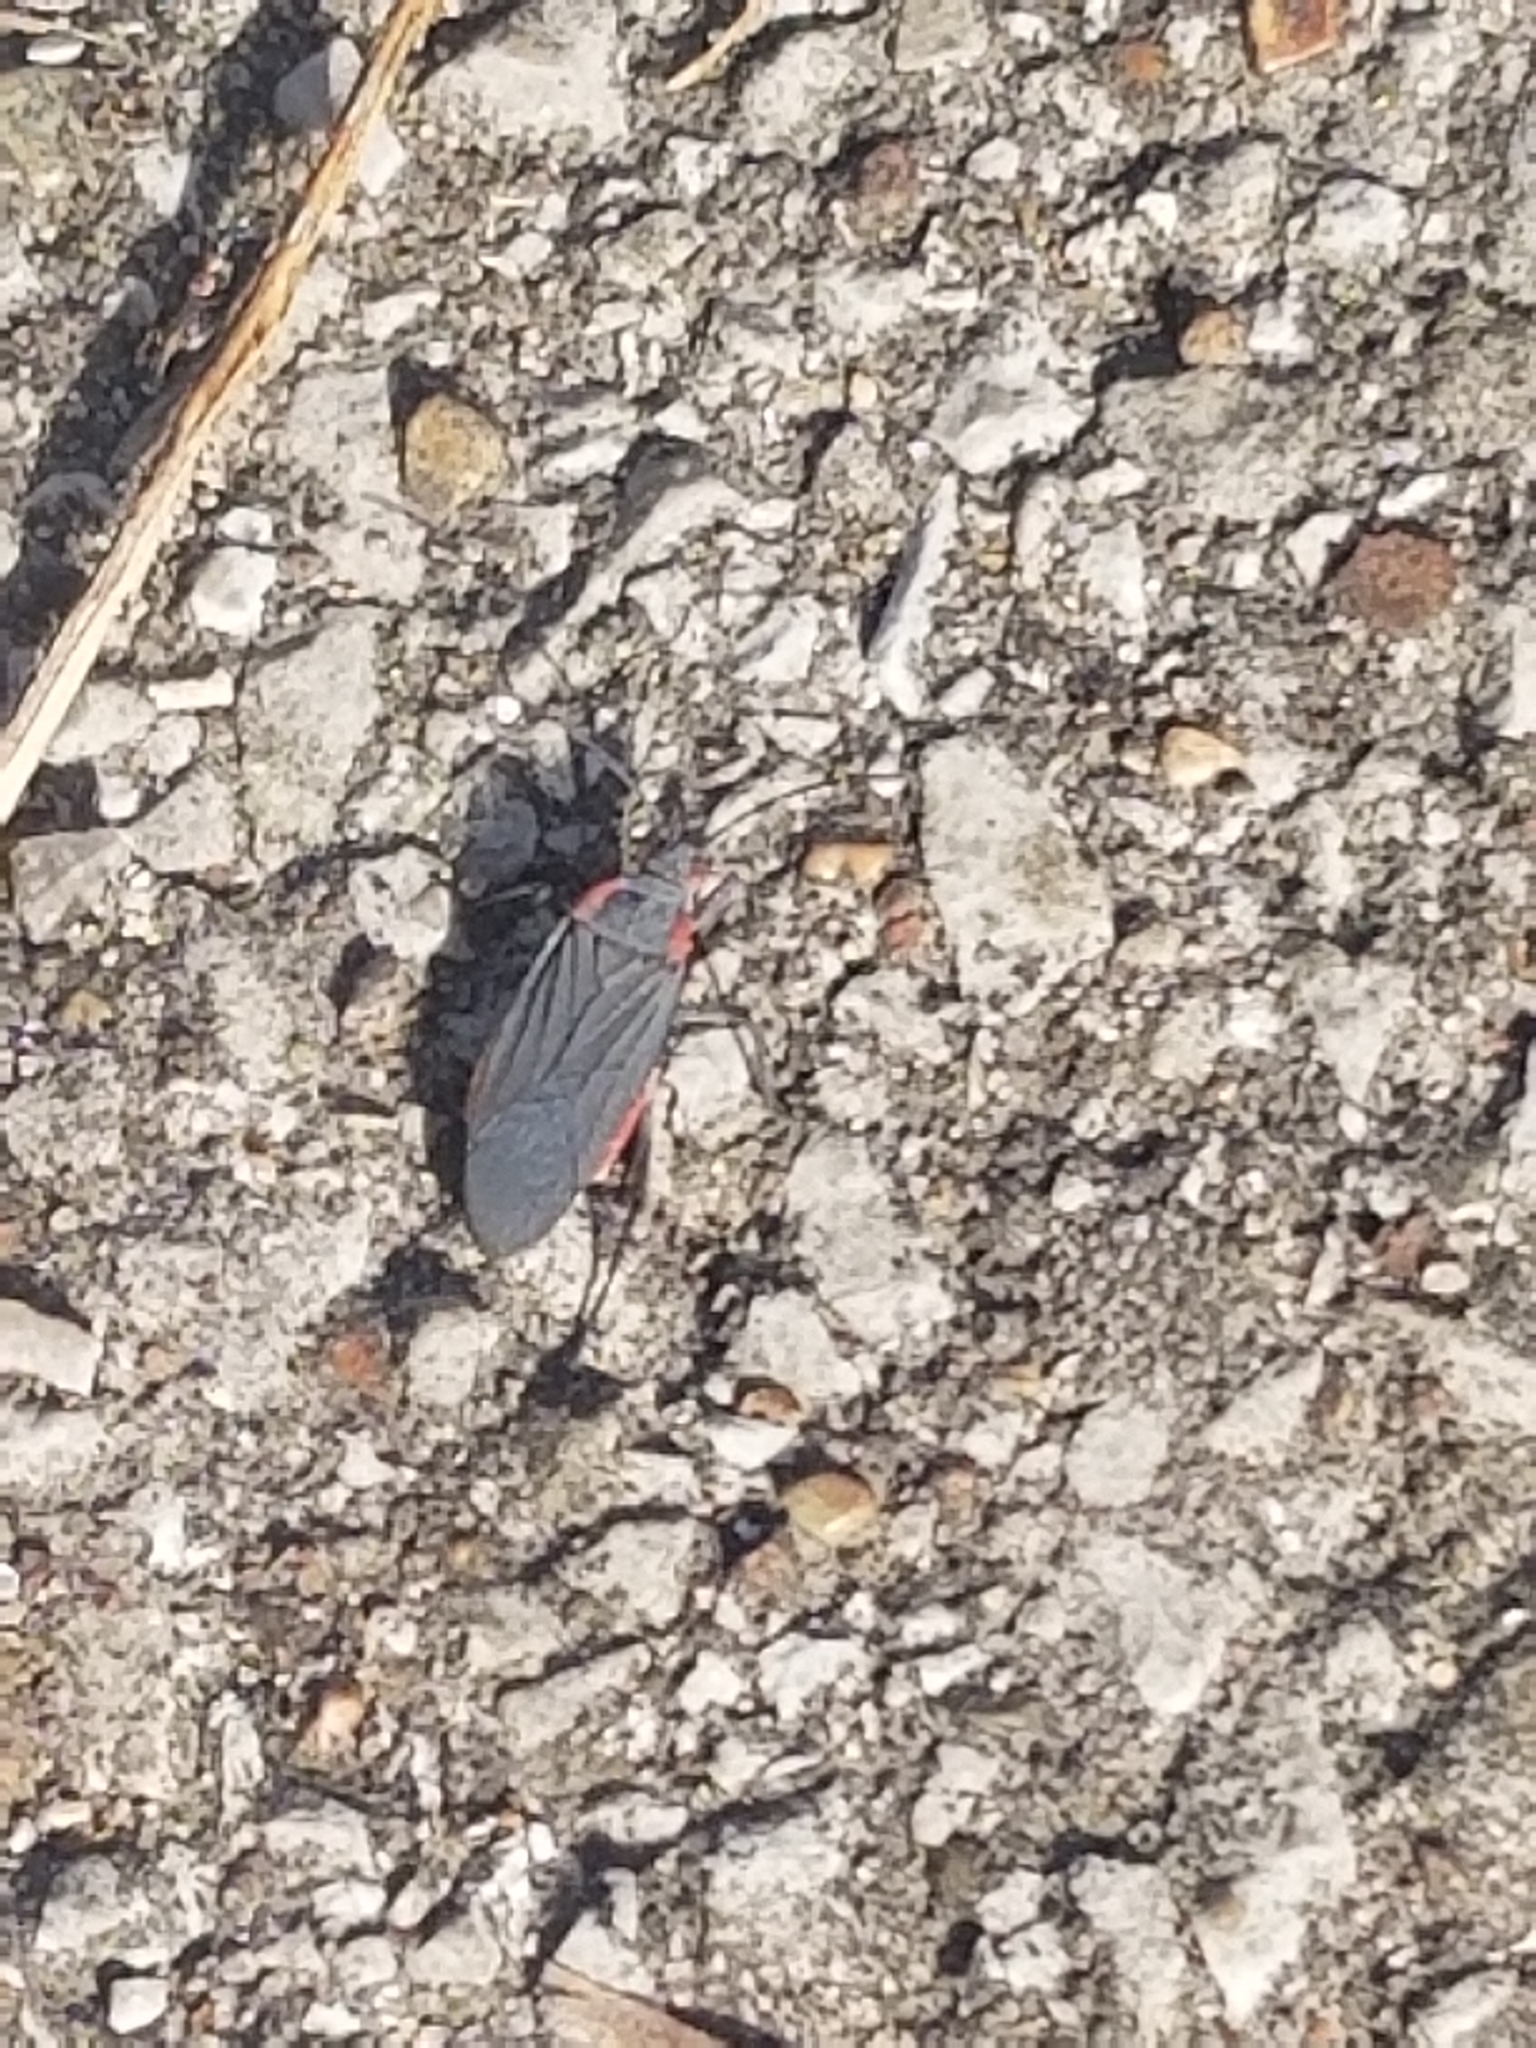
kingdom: Animalia
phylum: Arthropoda
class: Insecta
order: Hemiptera
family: Rhopalidae
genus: Jadera
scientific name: Jadera haematoloma
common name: Red-shouldered bug
